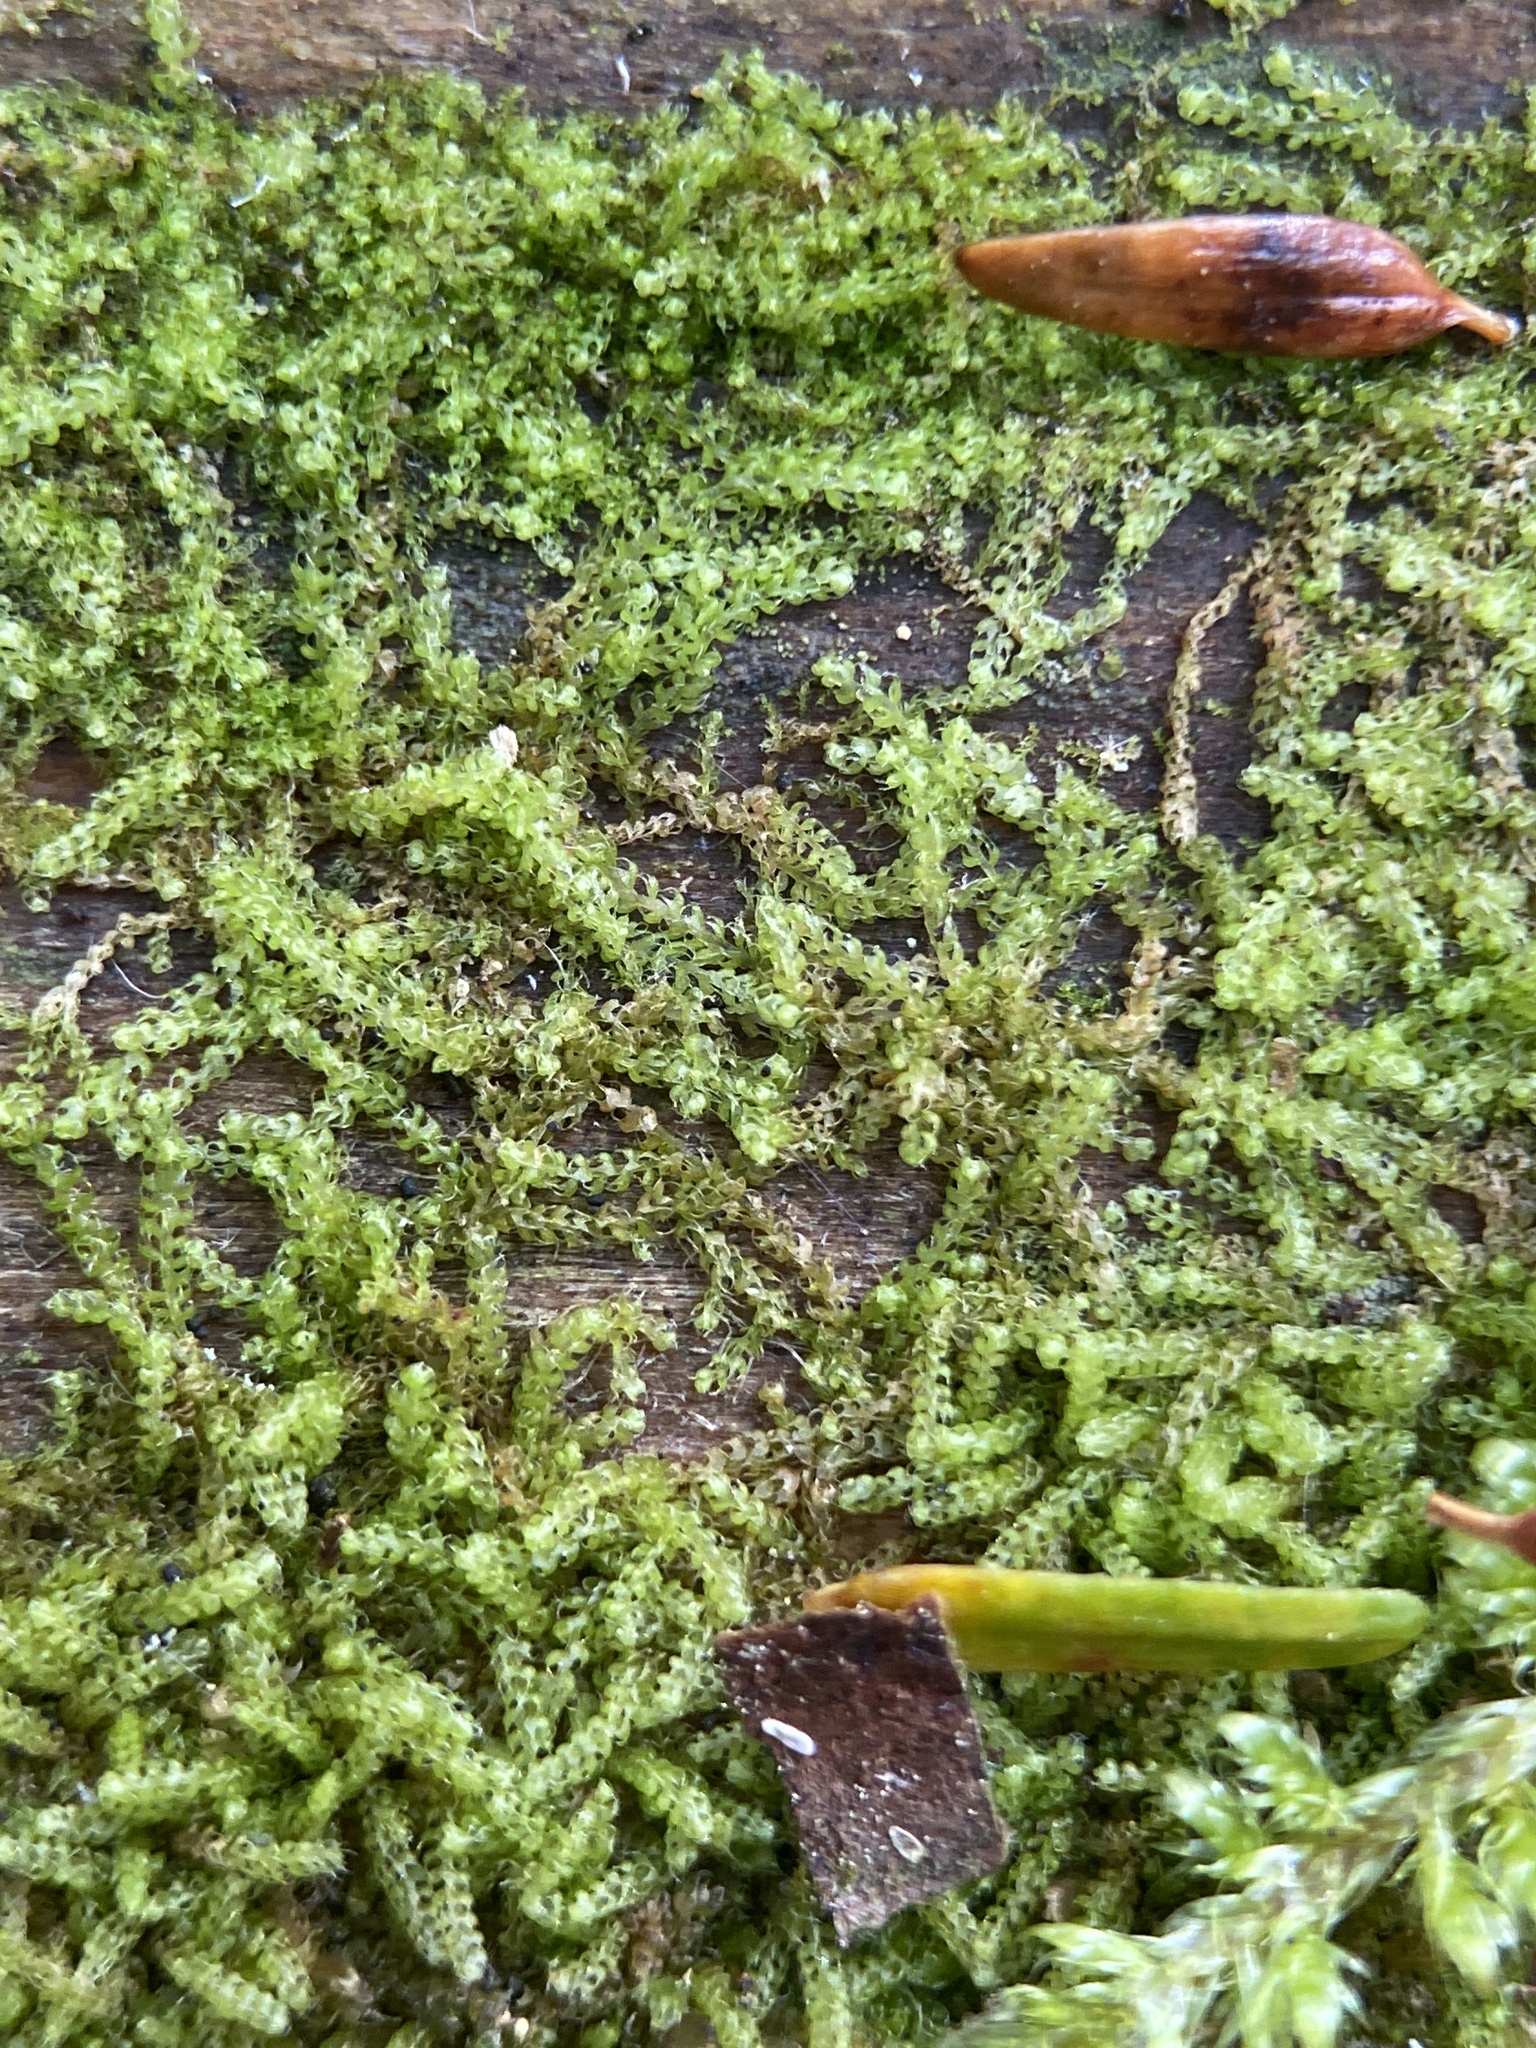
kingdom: Plantae
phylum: Marchantiophyta
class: Jungermanniopsida
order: Jungermanniales
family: Cephaloziaceae
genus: Nowellia
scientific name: Nowellia curvifolia
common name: Wood rustwort
